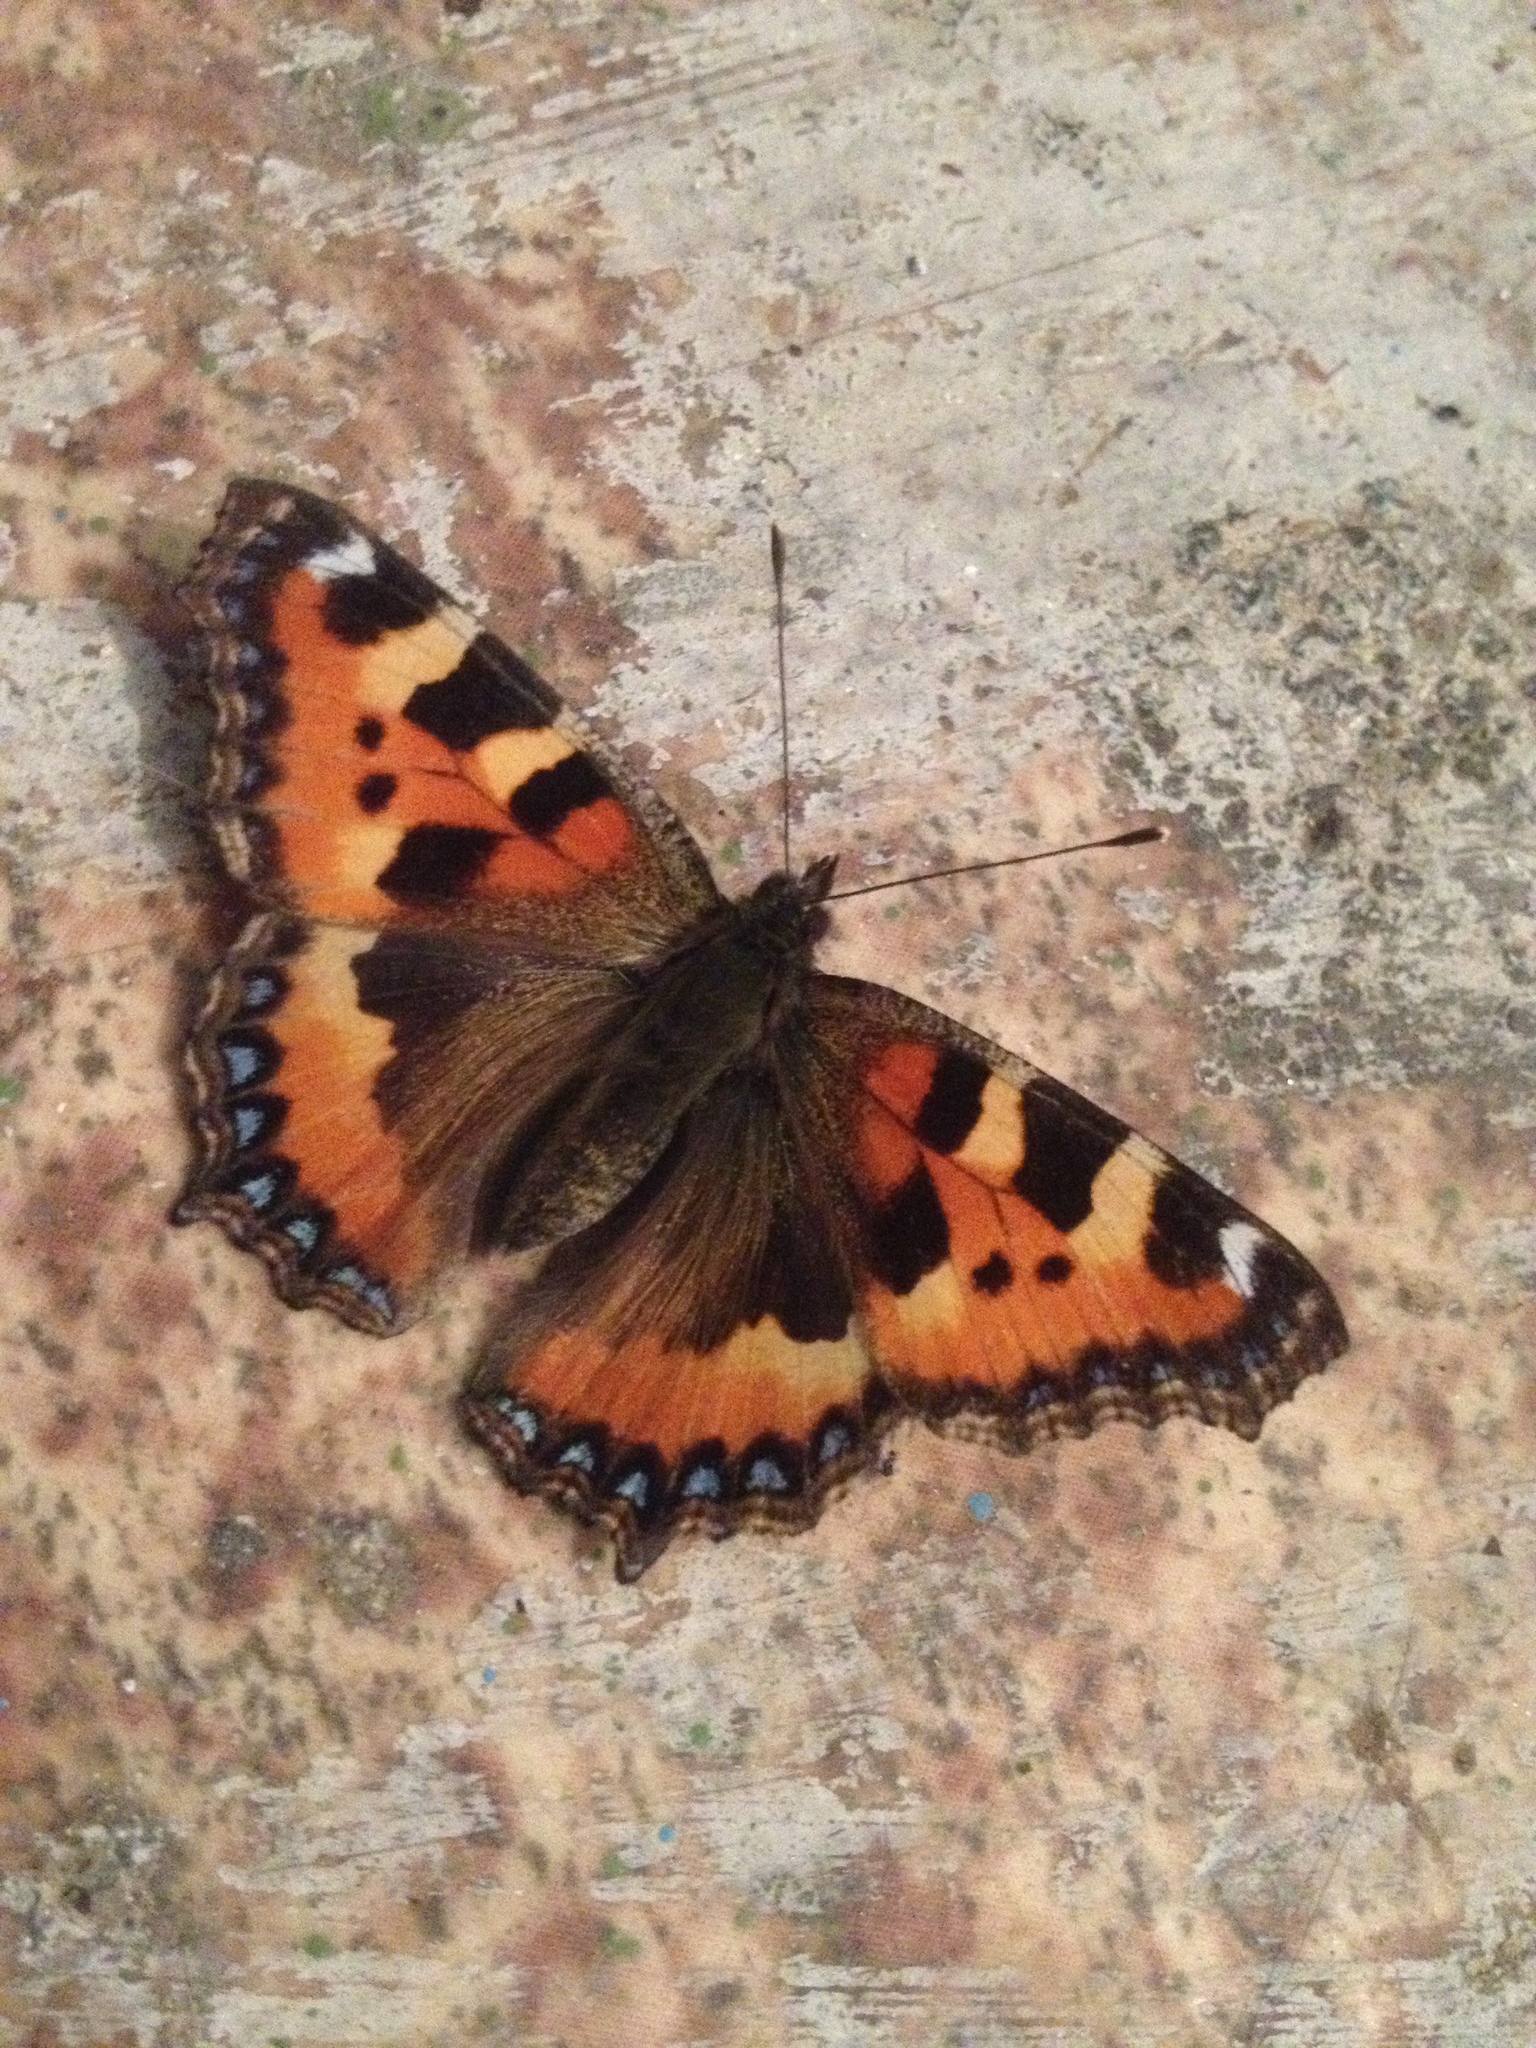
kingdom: Animalia
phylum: Arthropoda
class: Insecta
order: Lepidoptera
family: Nymphalidae
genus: Aglais
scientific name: Aglais urticae
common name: Small tortoiseshell
